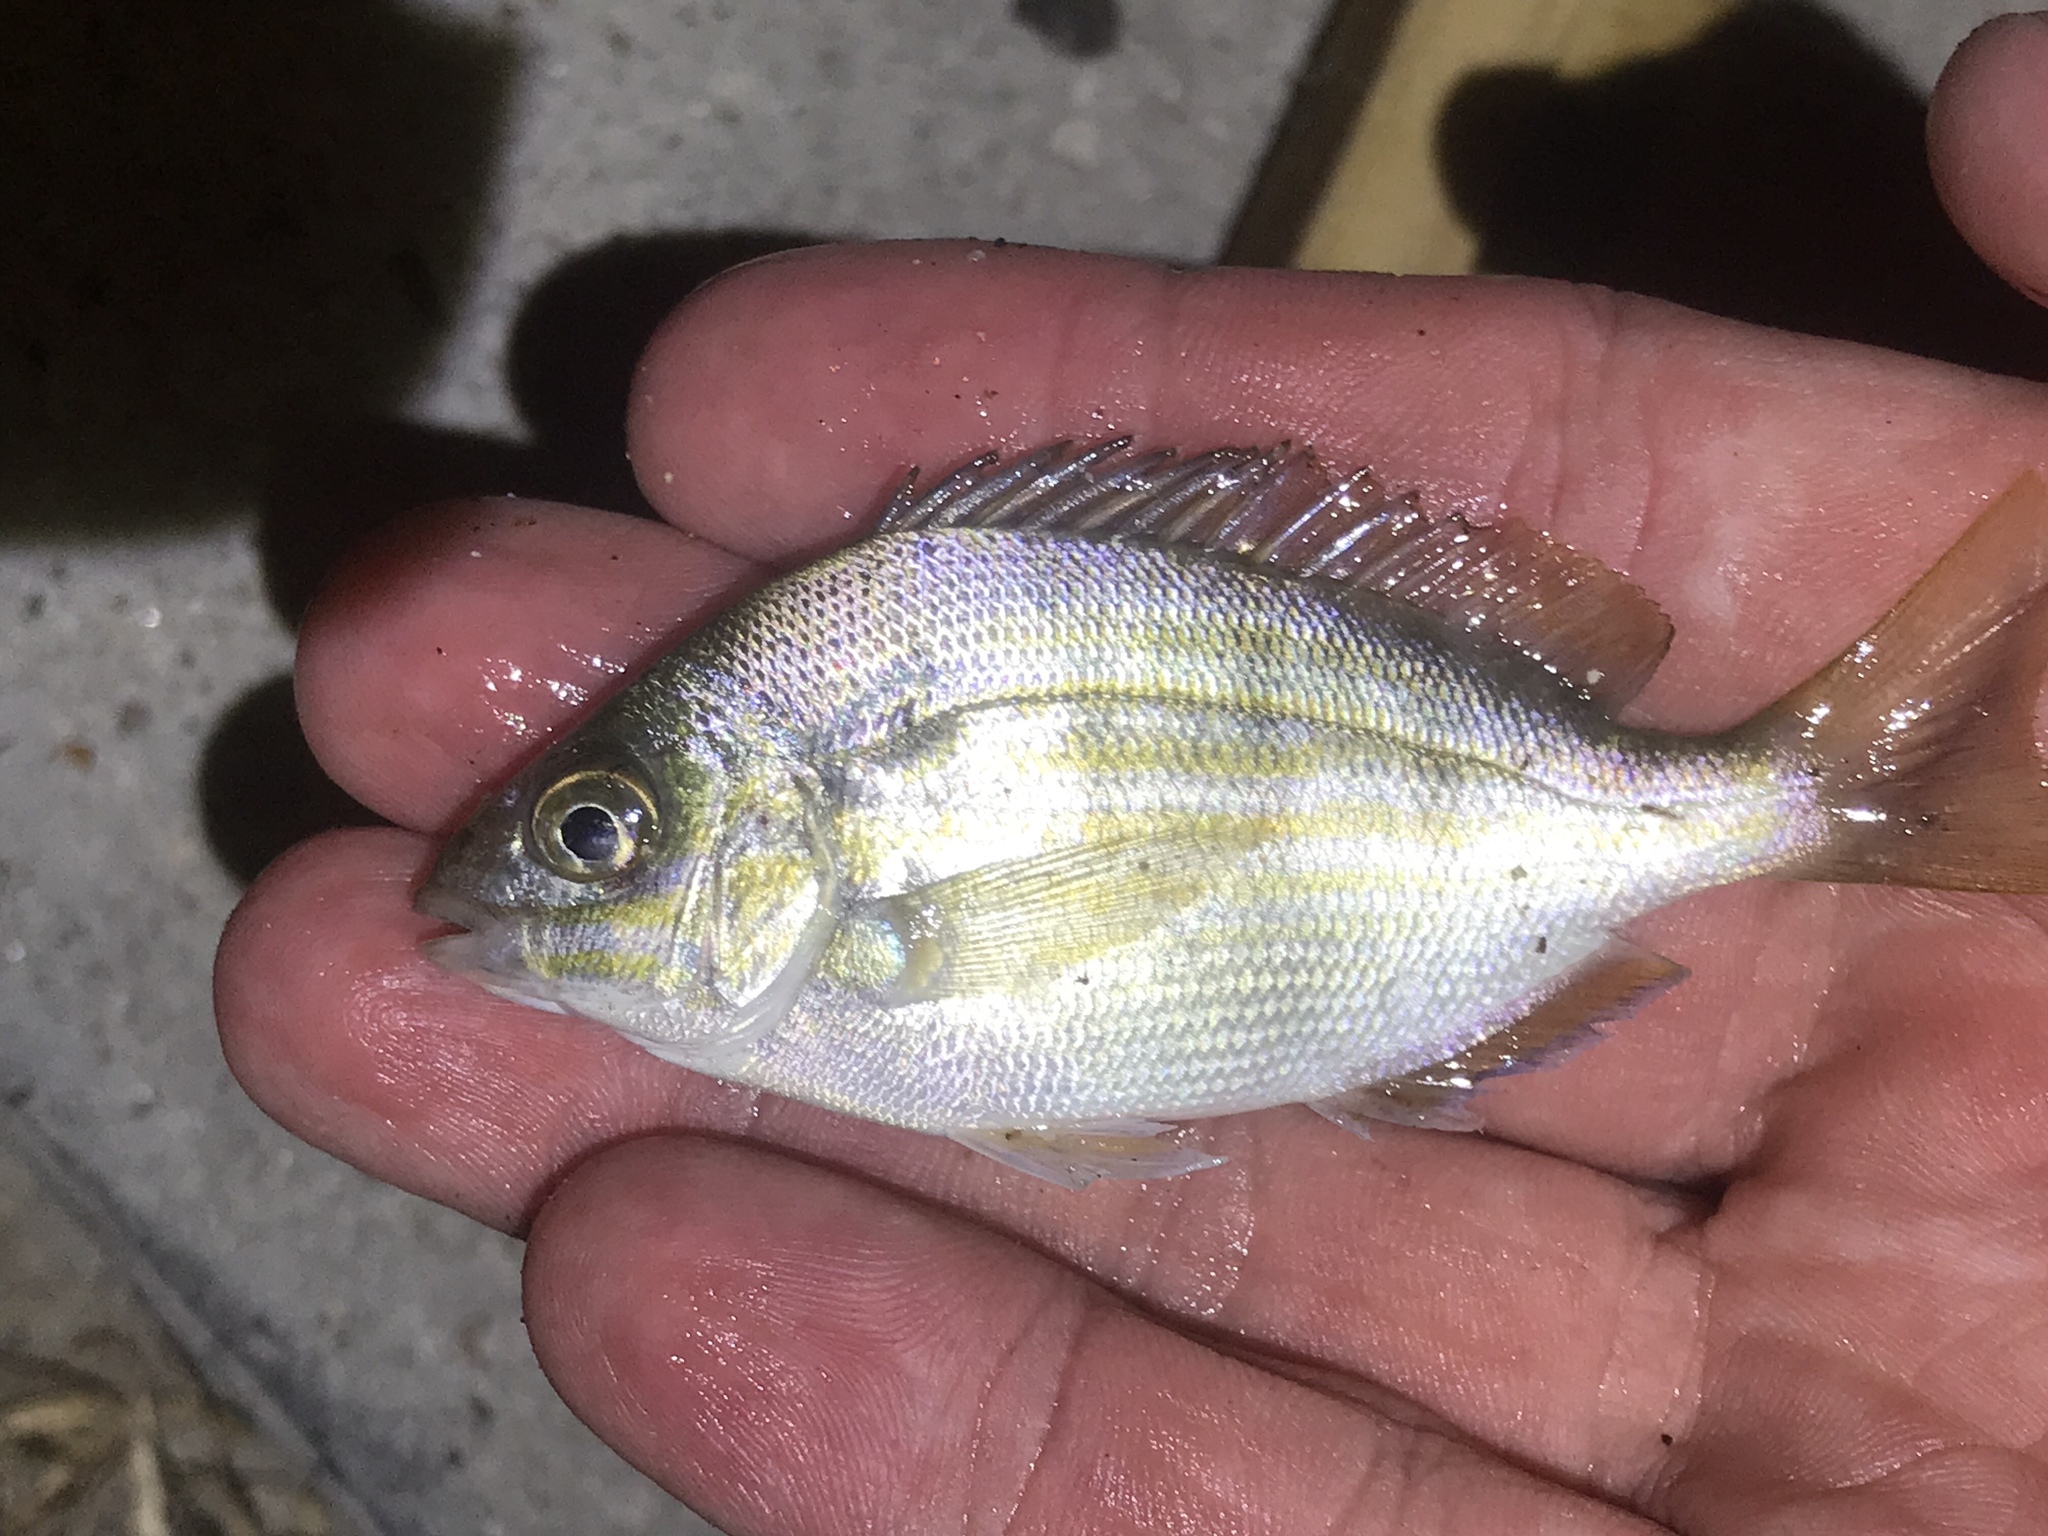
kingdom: Animalia
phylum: Chordata
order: Perciformes
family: Sparidae
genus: Lagodon
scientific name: Lagodon rhomboides
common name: Pinfish
